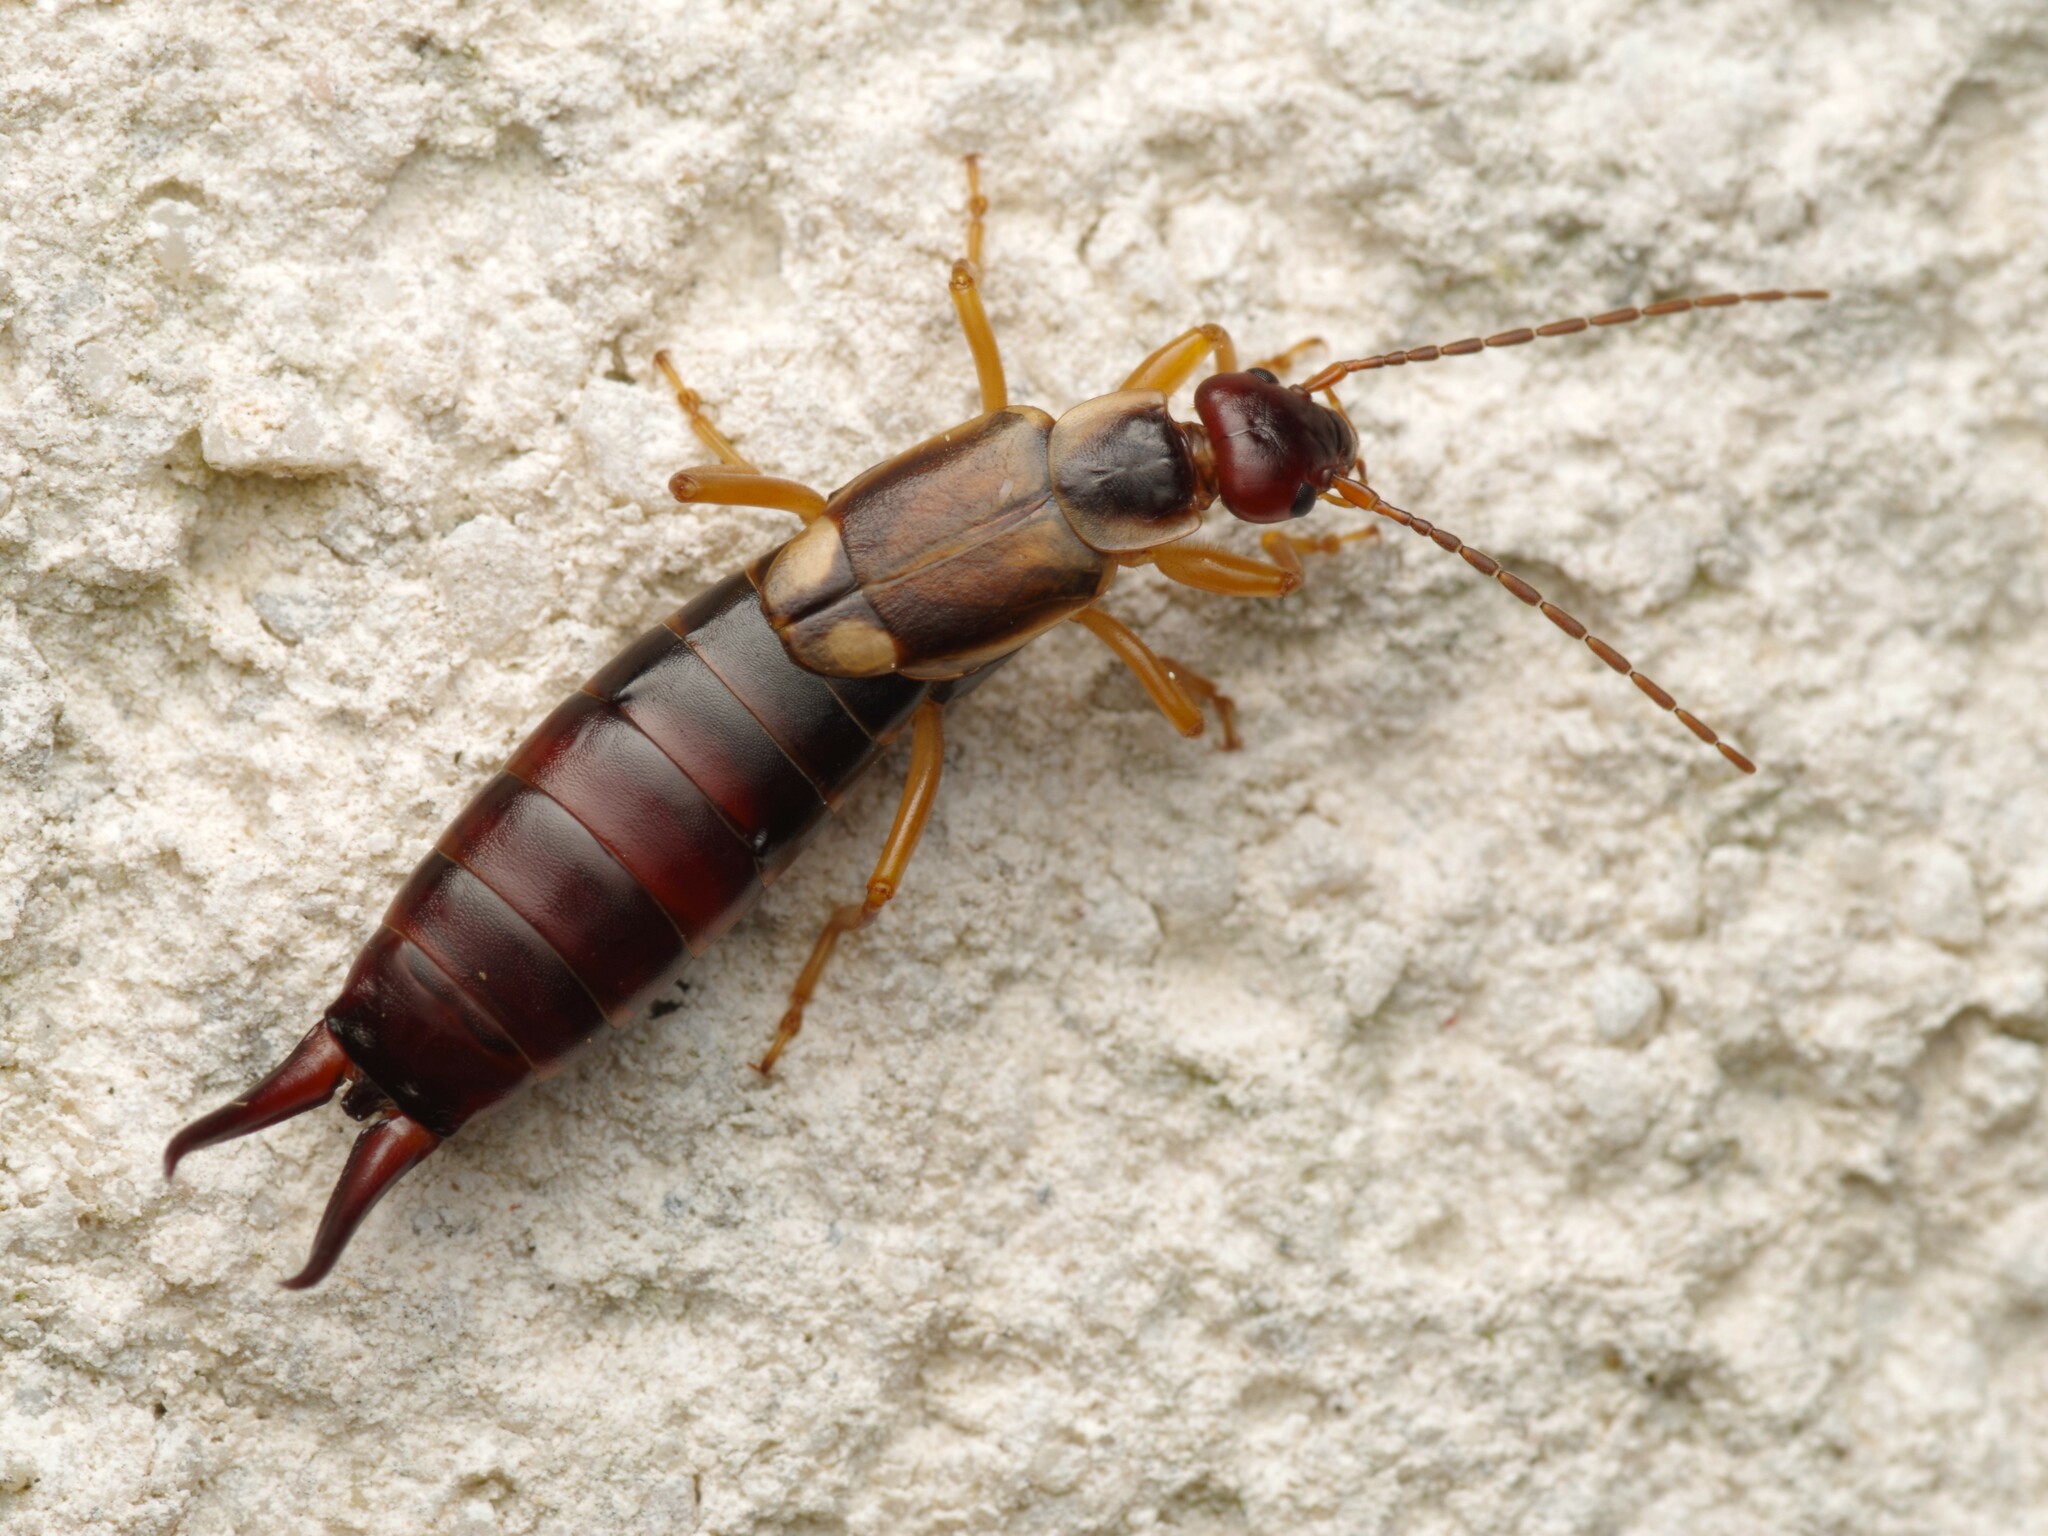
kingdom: Animalia
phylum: Arthropoda
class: Insecta
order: Dermaptera
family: Forficulidae
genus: Forficula
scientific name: Forficula
